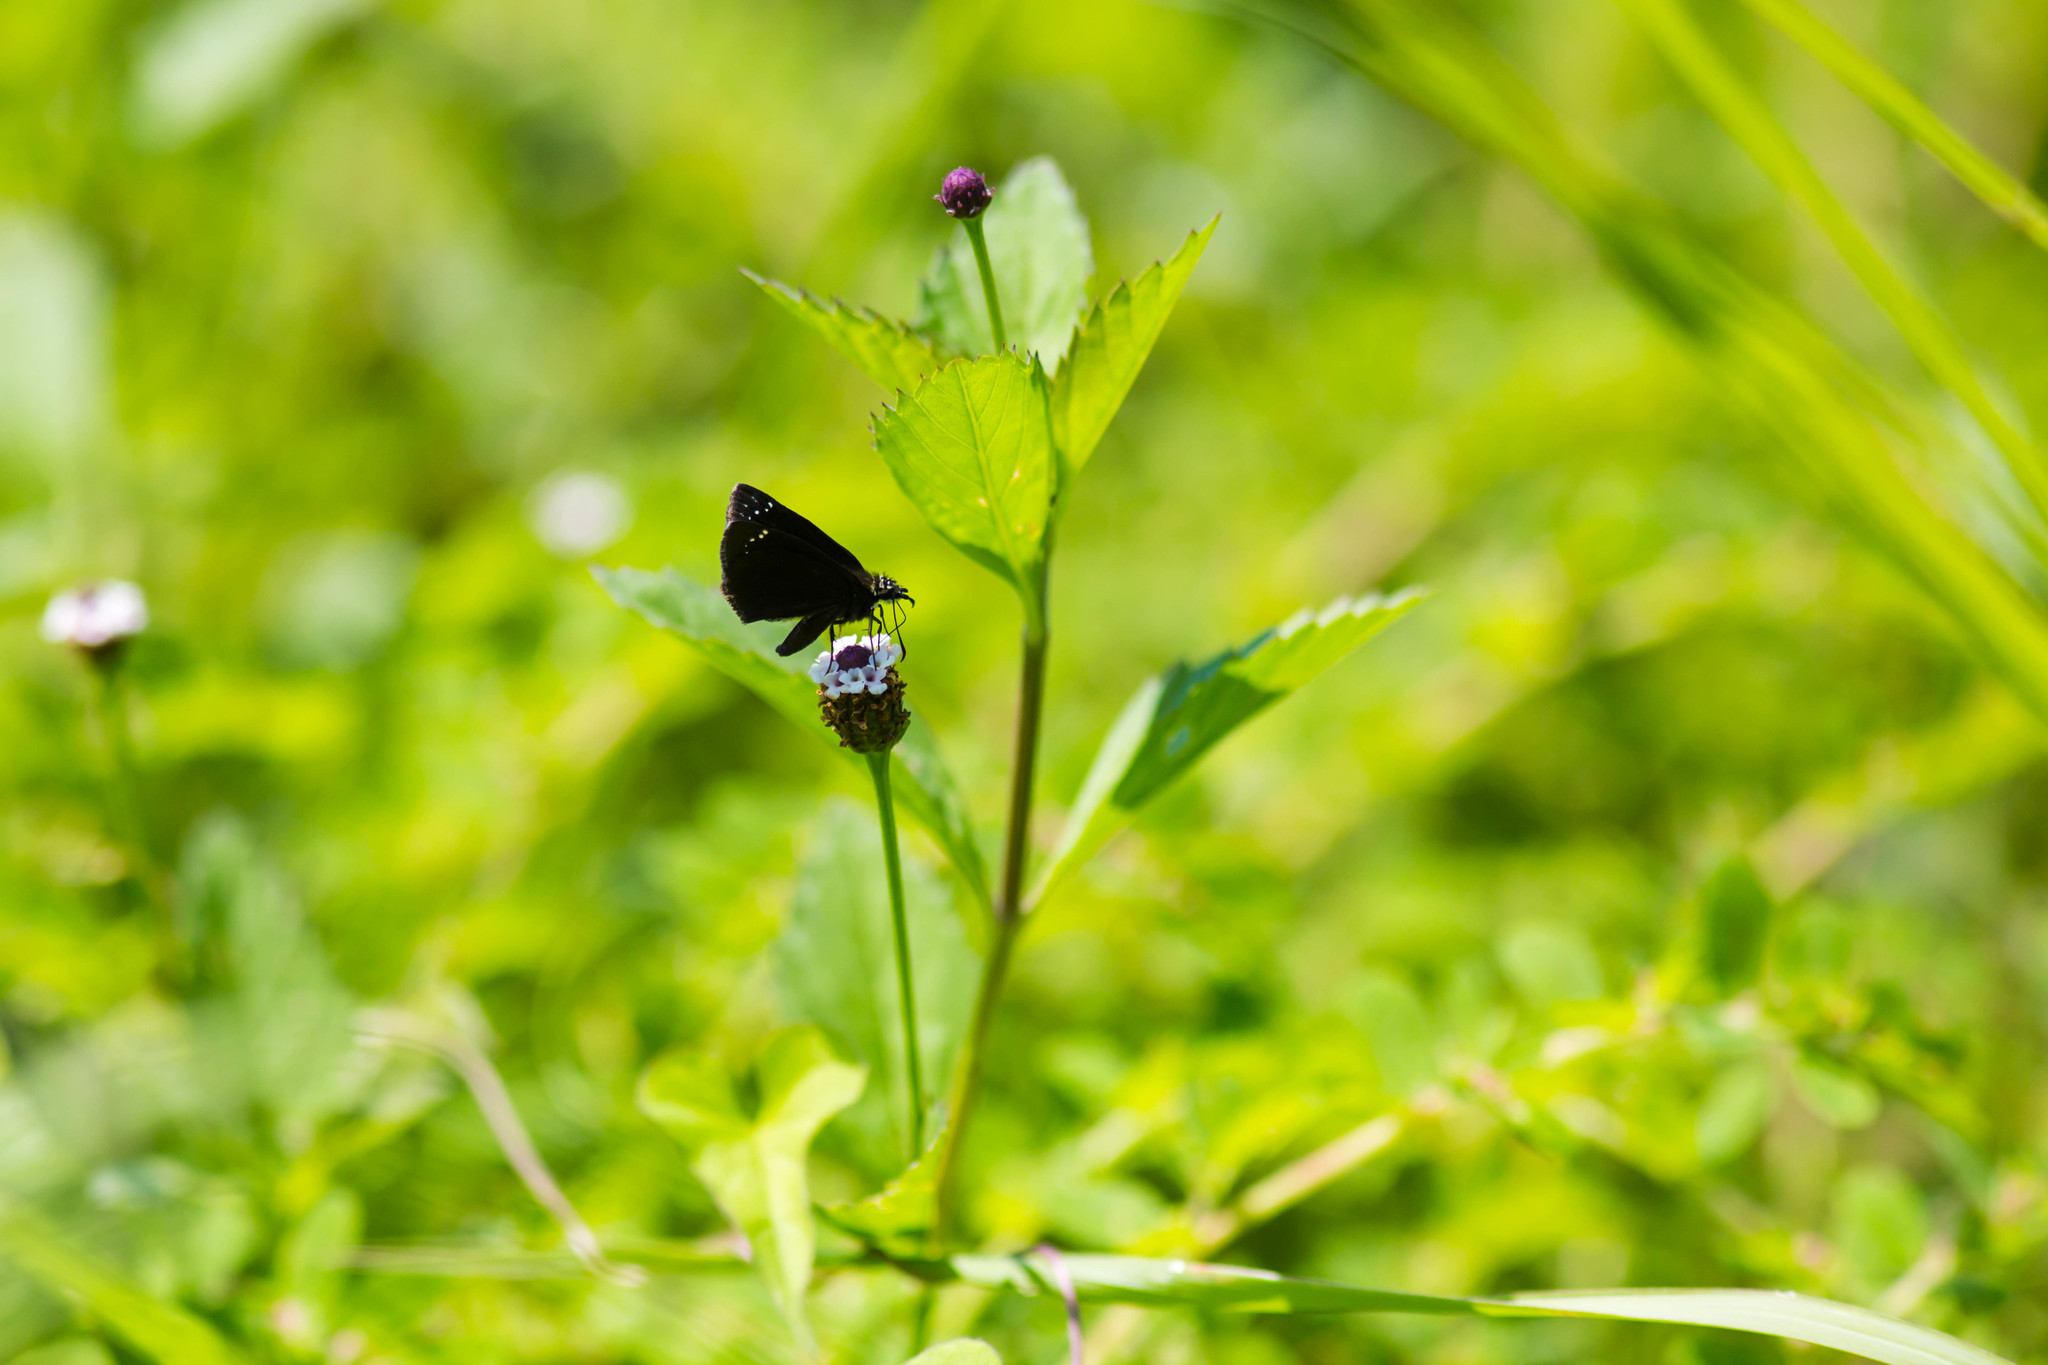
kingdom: Animalia
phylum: Arthropoda
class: Insecta
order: Lepidoptera
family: Hesperiidae
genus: Pholisora
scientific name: Pholisora catullus
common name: Common sootywing
